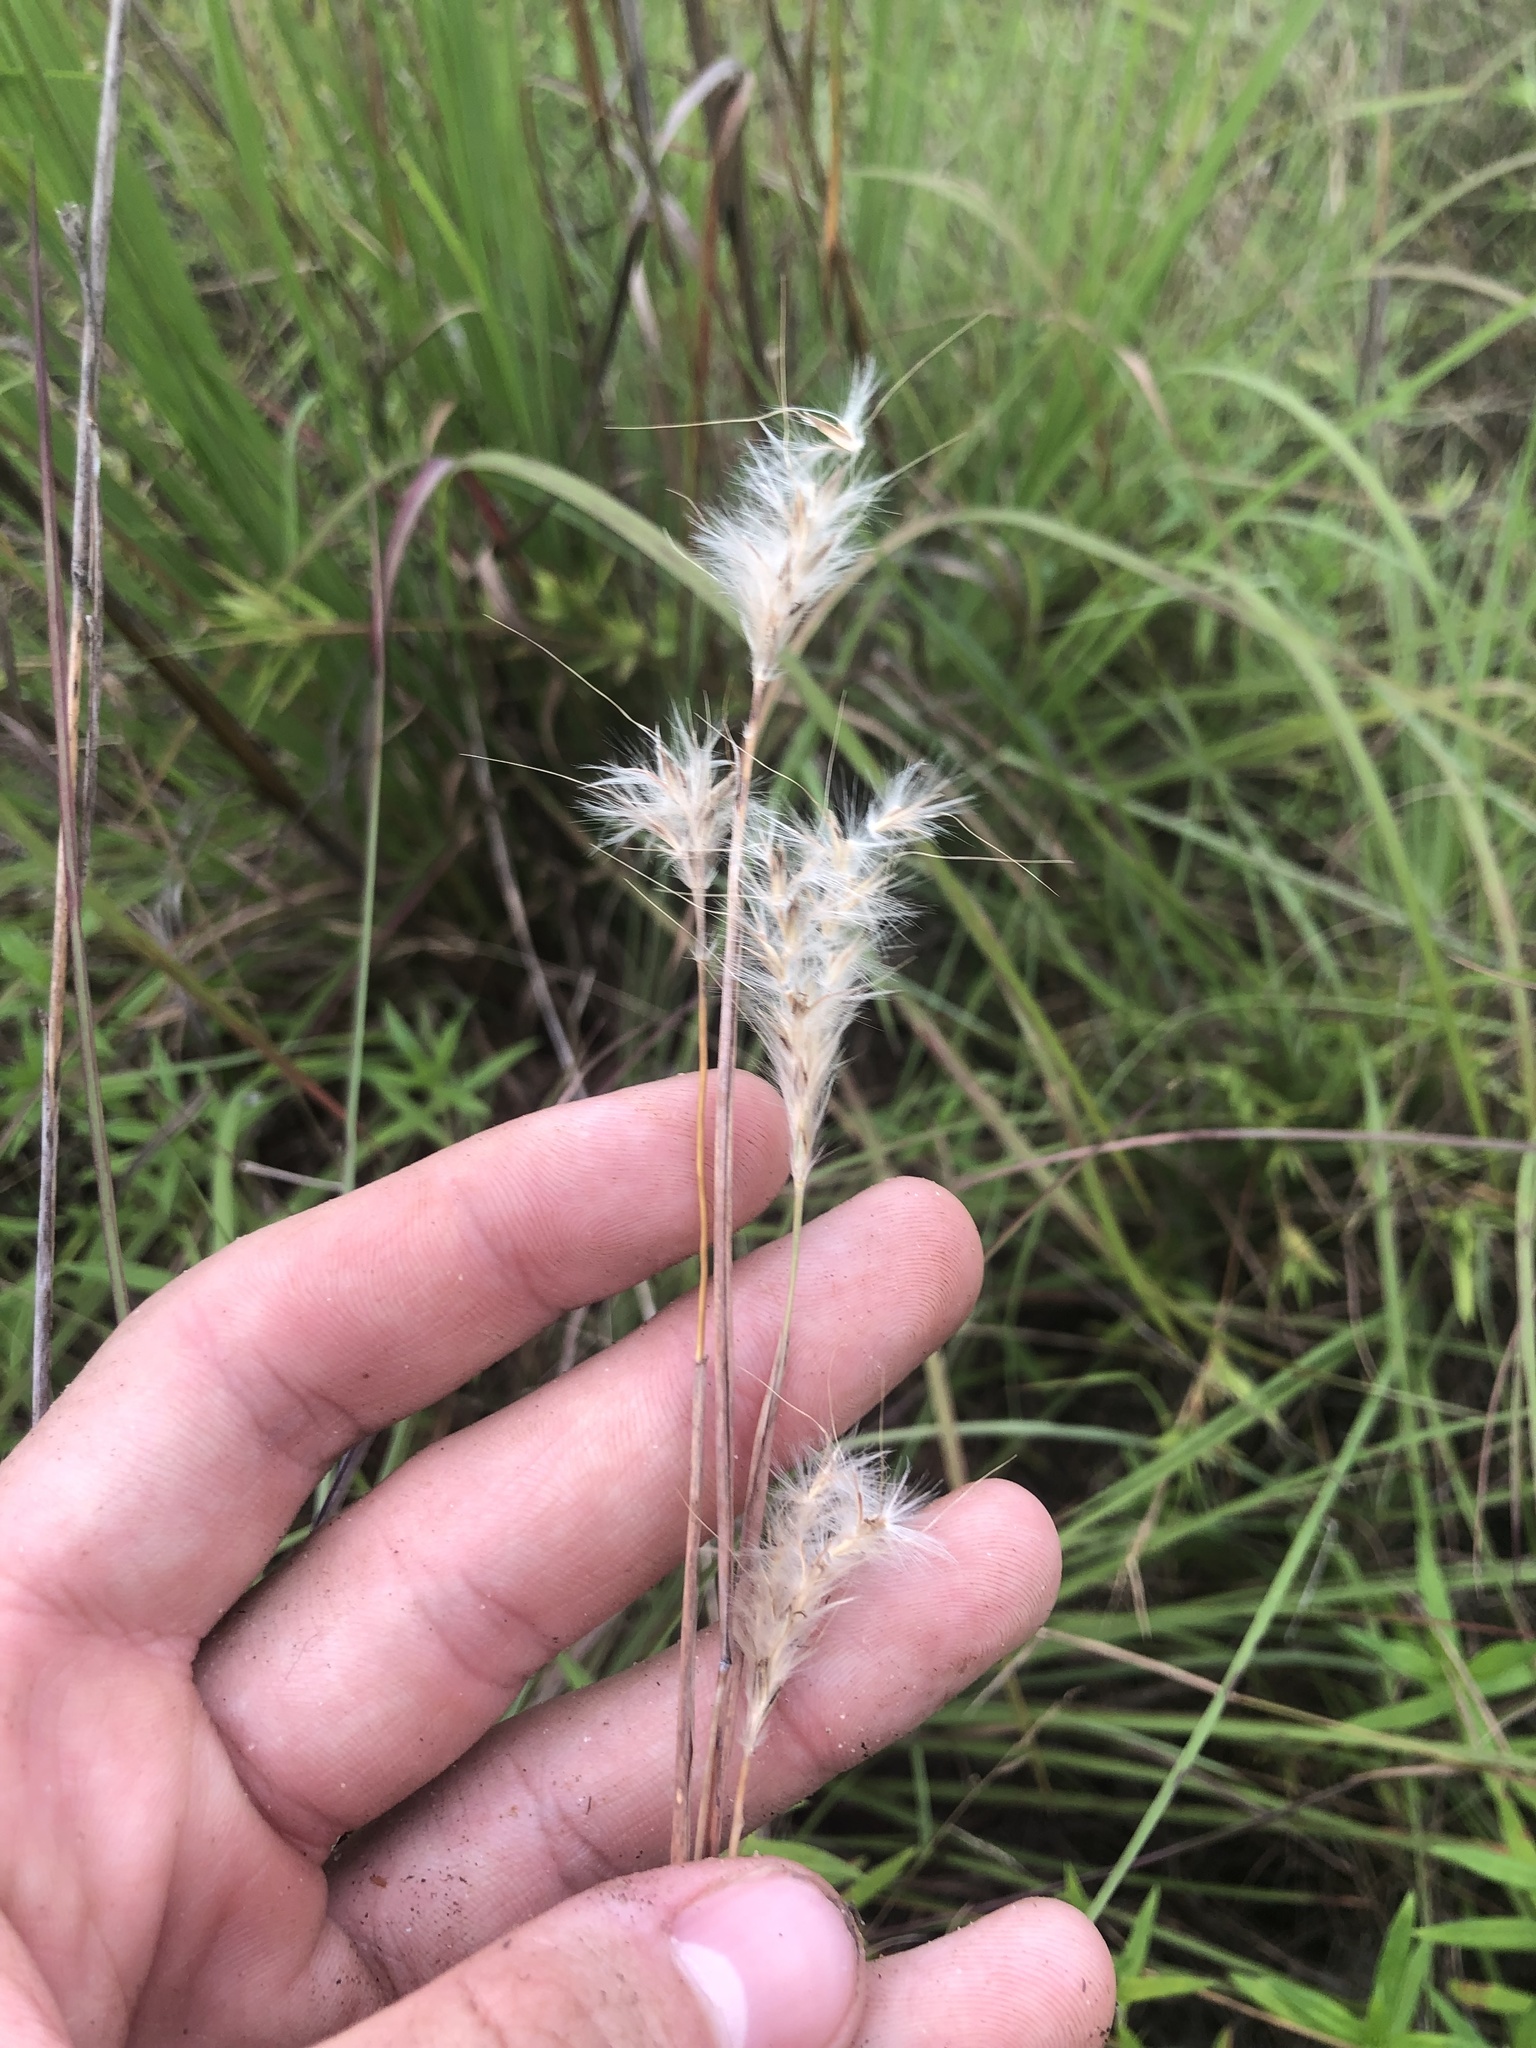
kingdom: Plantae
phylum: Tracheophyta
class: Liliopsida
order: Poales
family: Poaceae
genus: Andropogon
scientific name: Andropogon ternarius
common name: Split bluestem
